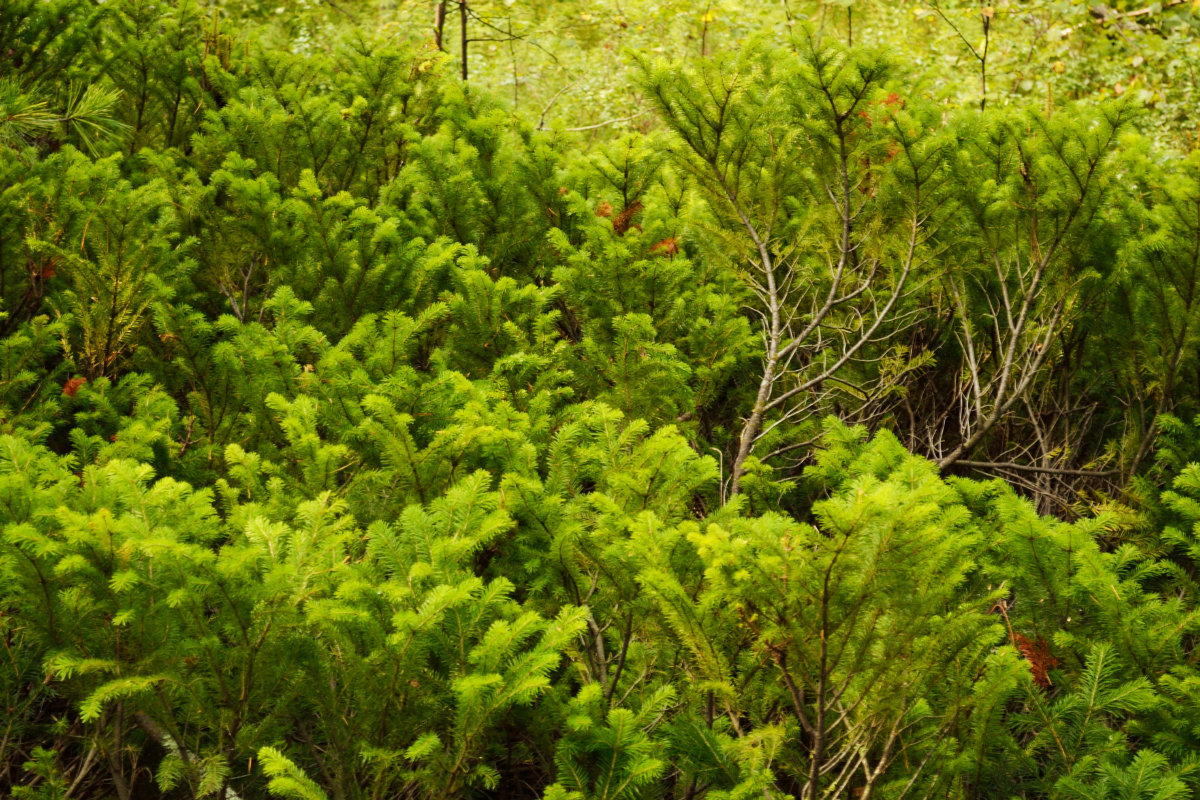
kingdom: Plantae
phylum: Tracheophyta
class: Pinopsida
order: Pinales
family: Pinaceae
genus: Abies
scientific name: Abies sibirica
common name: Siberian fir
